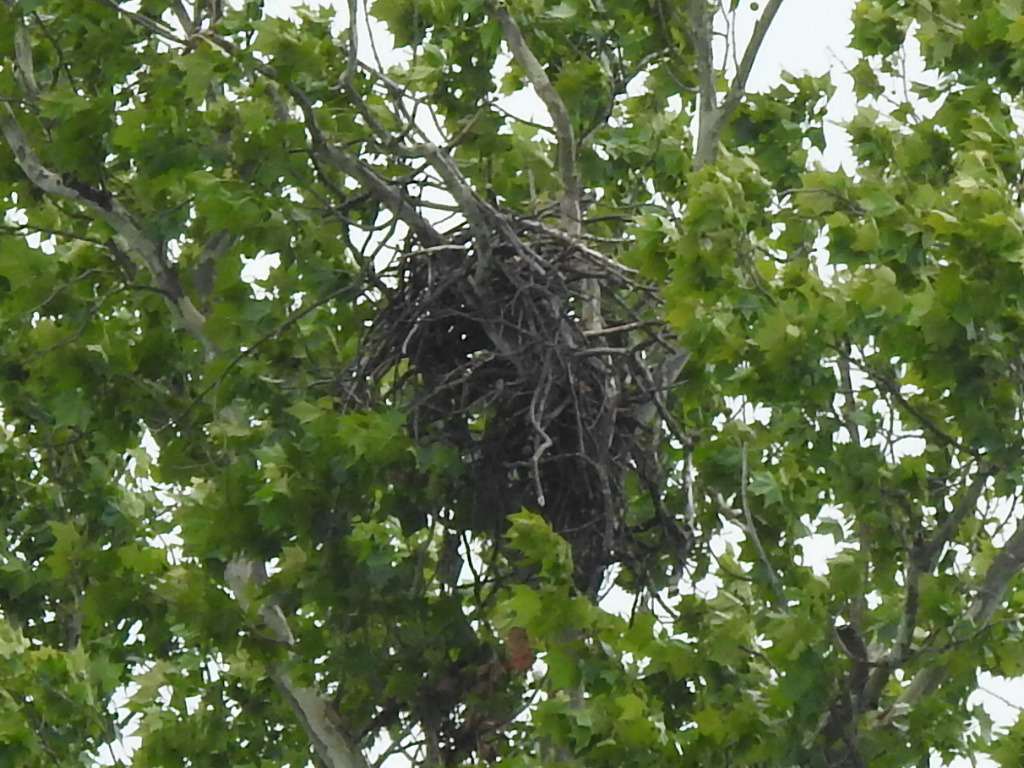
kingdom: Animalia
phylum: Chordata
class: Aves
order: Accipitriformes
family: Accipitridae
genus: Haliaeetus
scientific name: Haliaeetus leucocephalus
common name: Bald eagle
